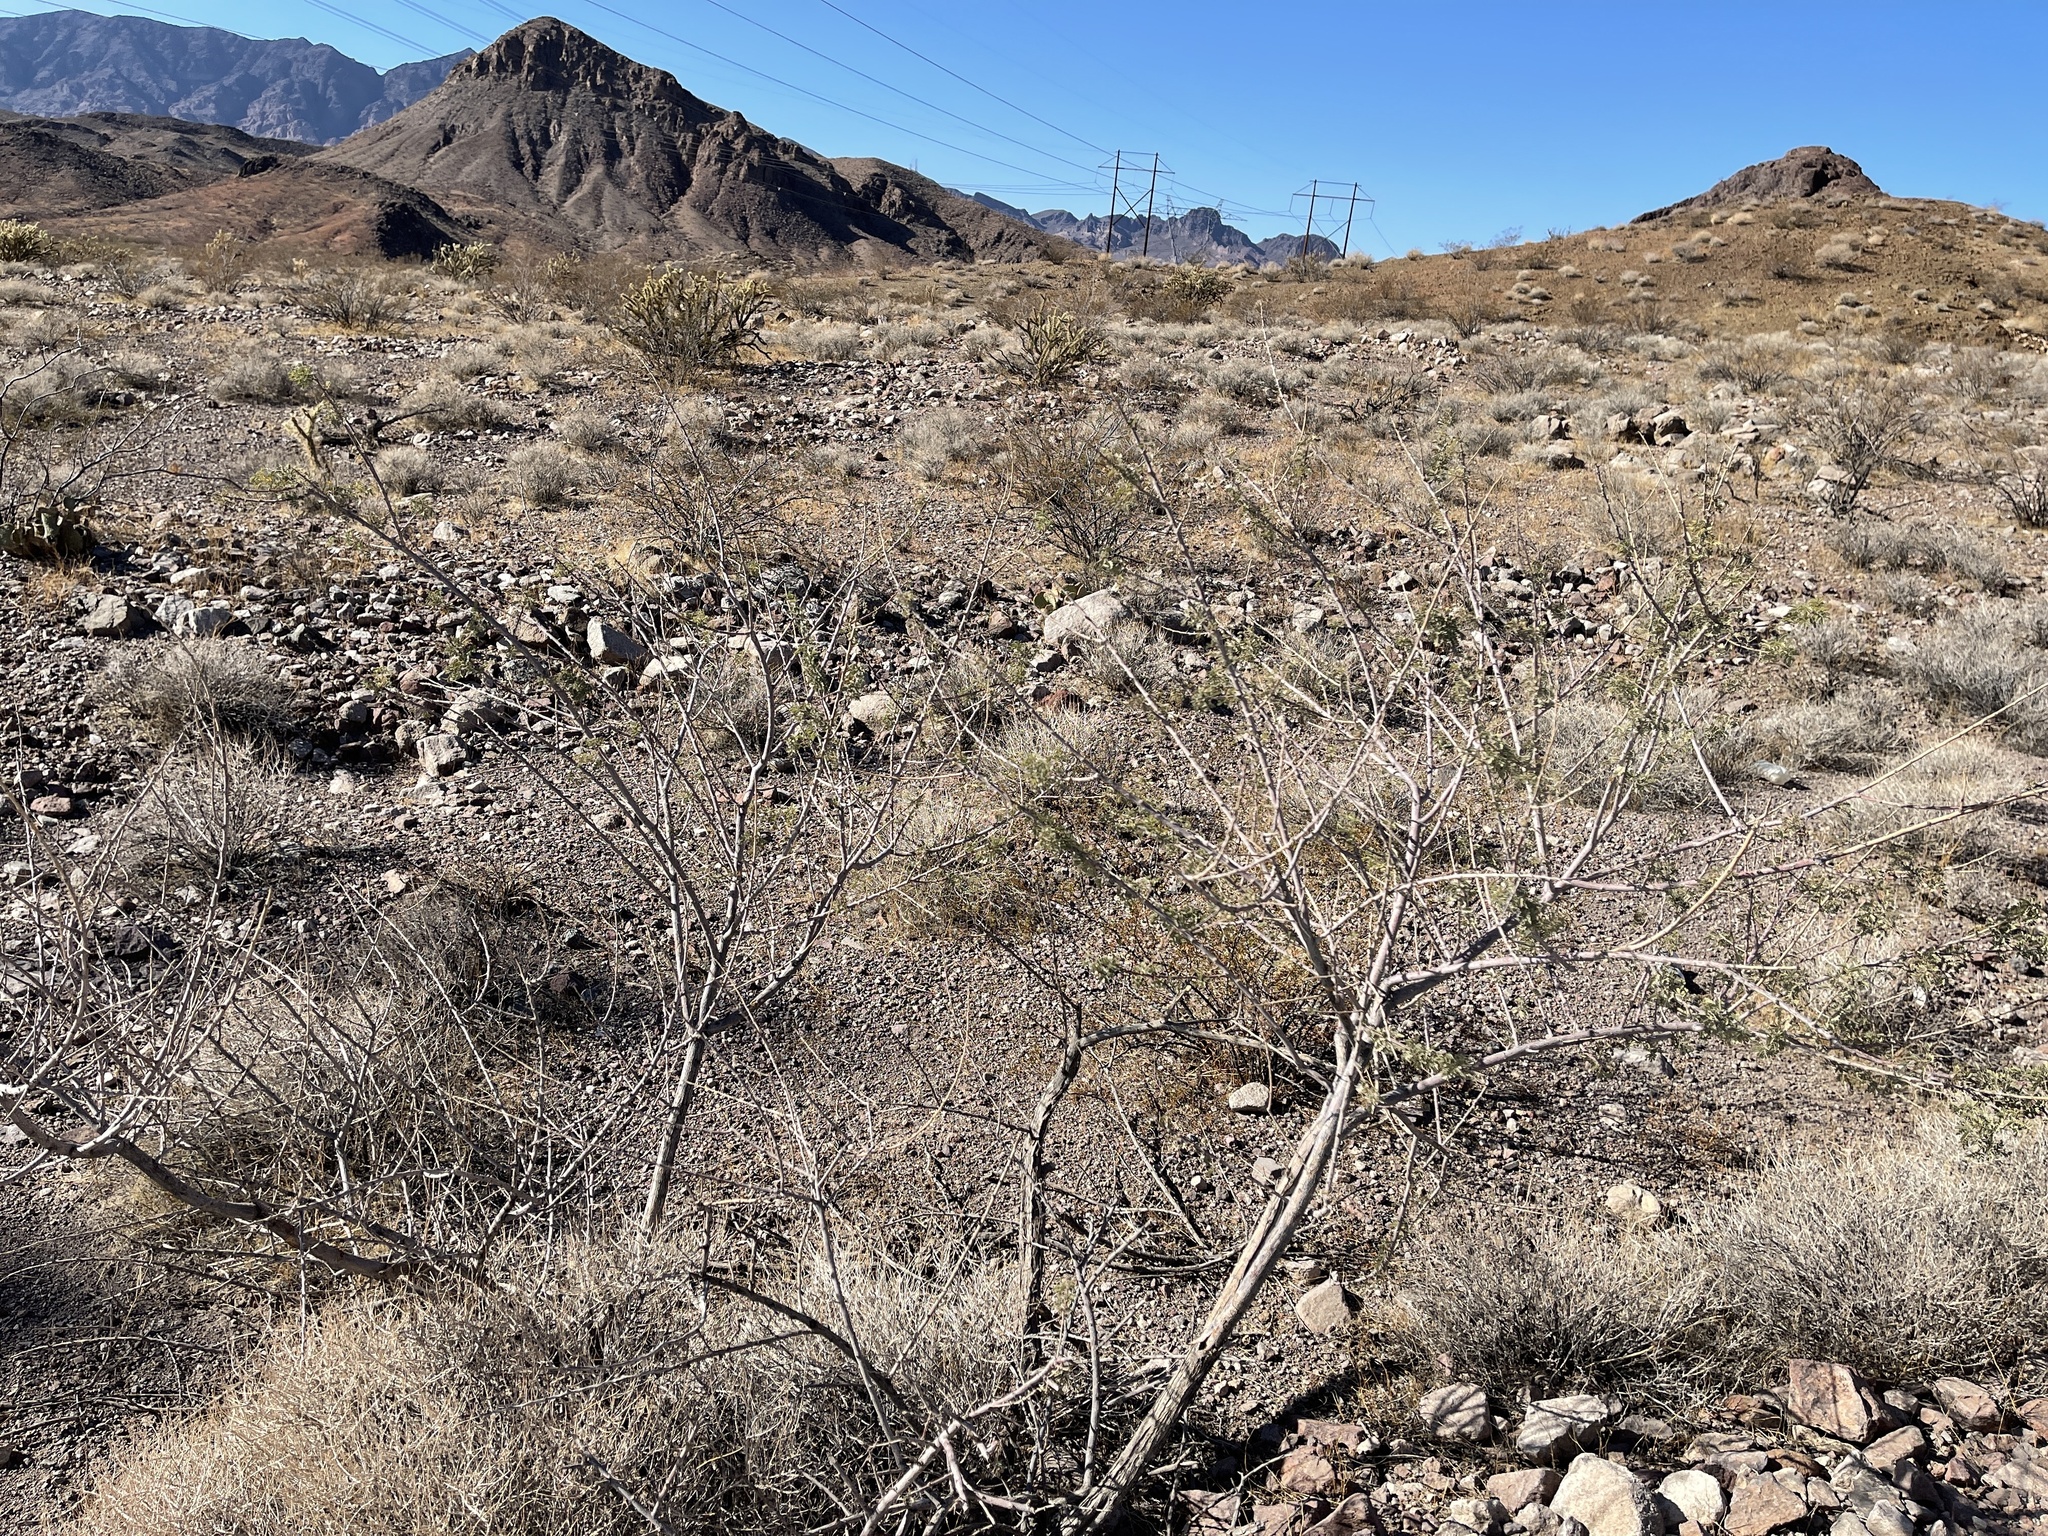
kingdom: Plantae
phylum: Tracheophyta
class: Magnoliopsida
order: Fabales
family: Fabaceae
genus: Senegalia
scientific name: Senegalia greggii
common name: Texas-mimosa
